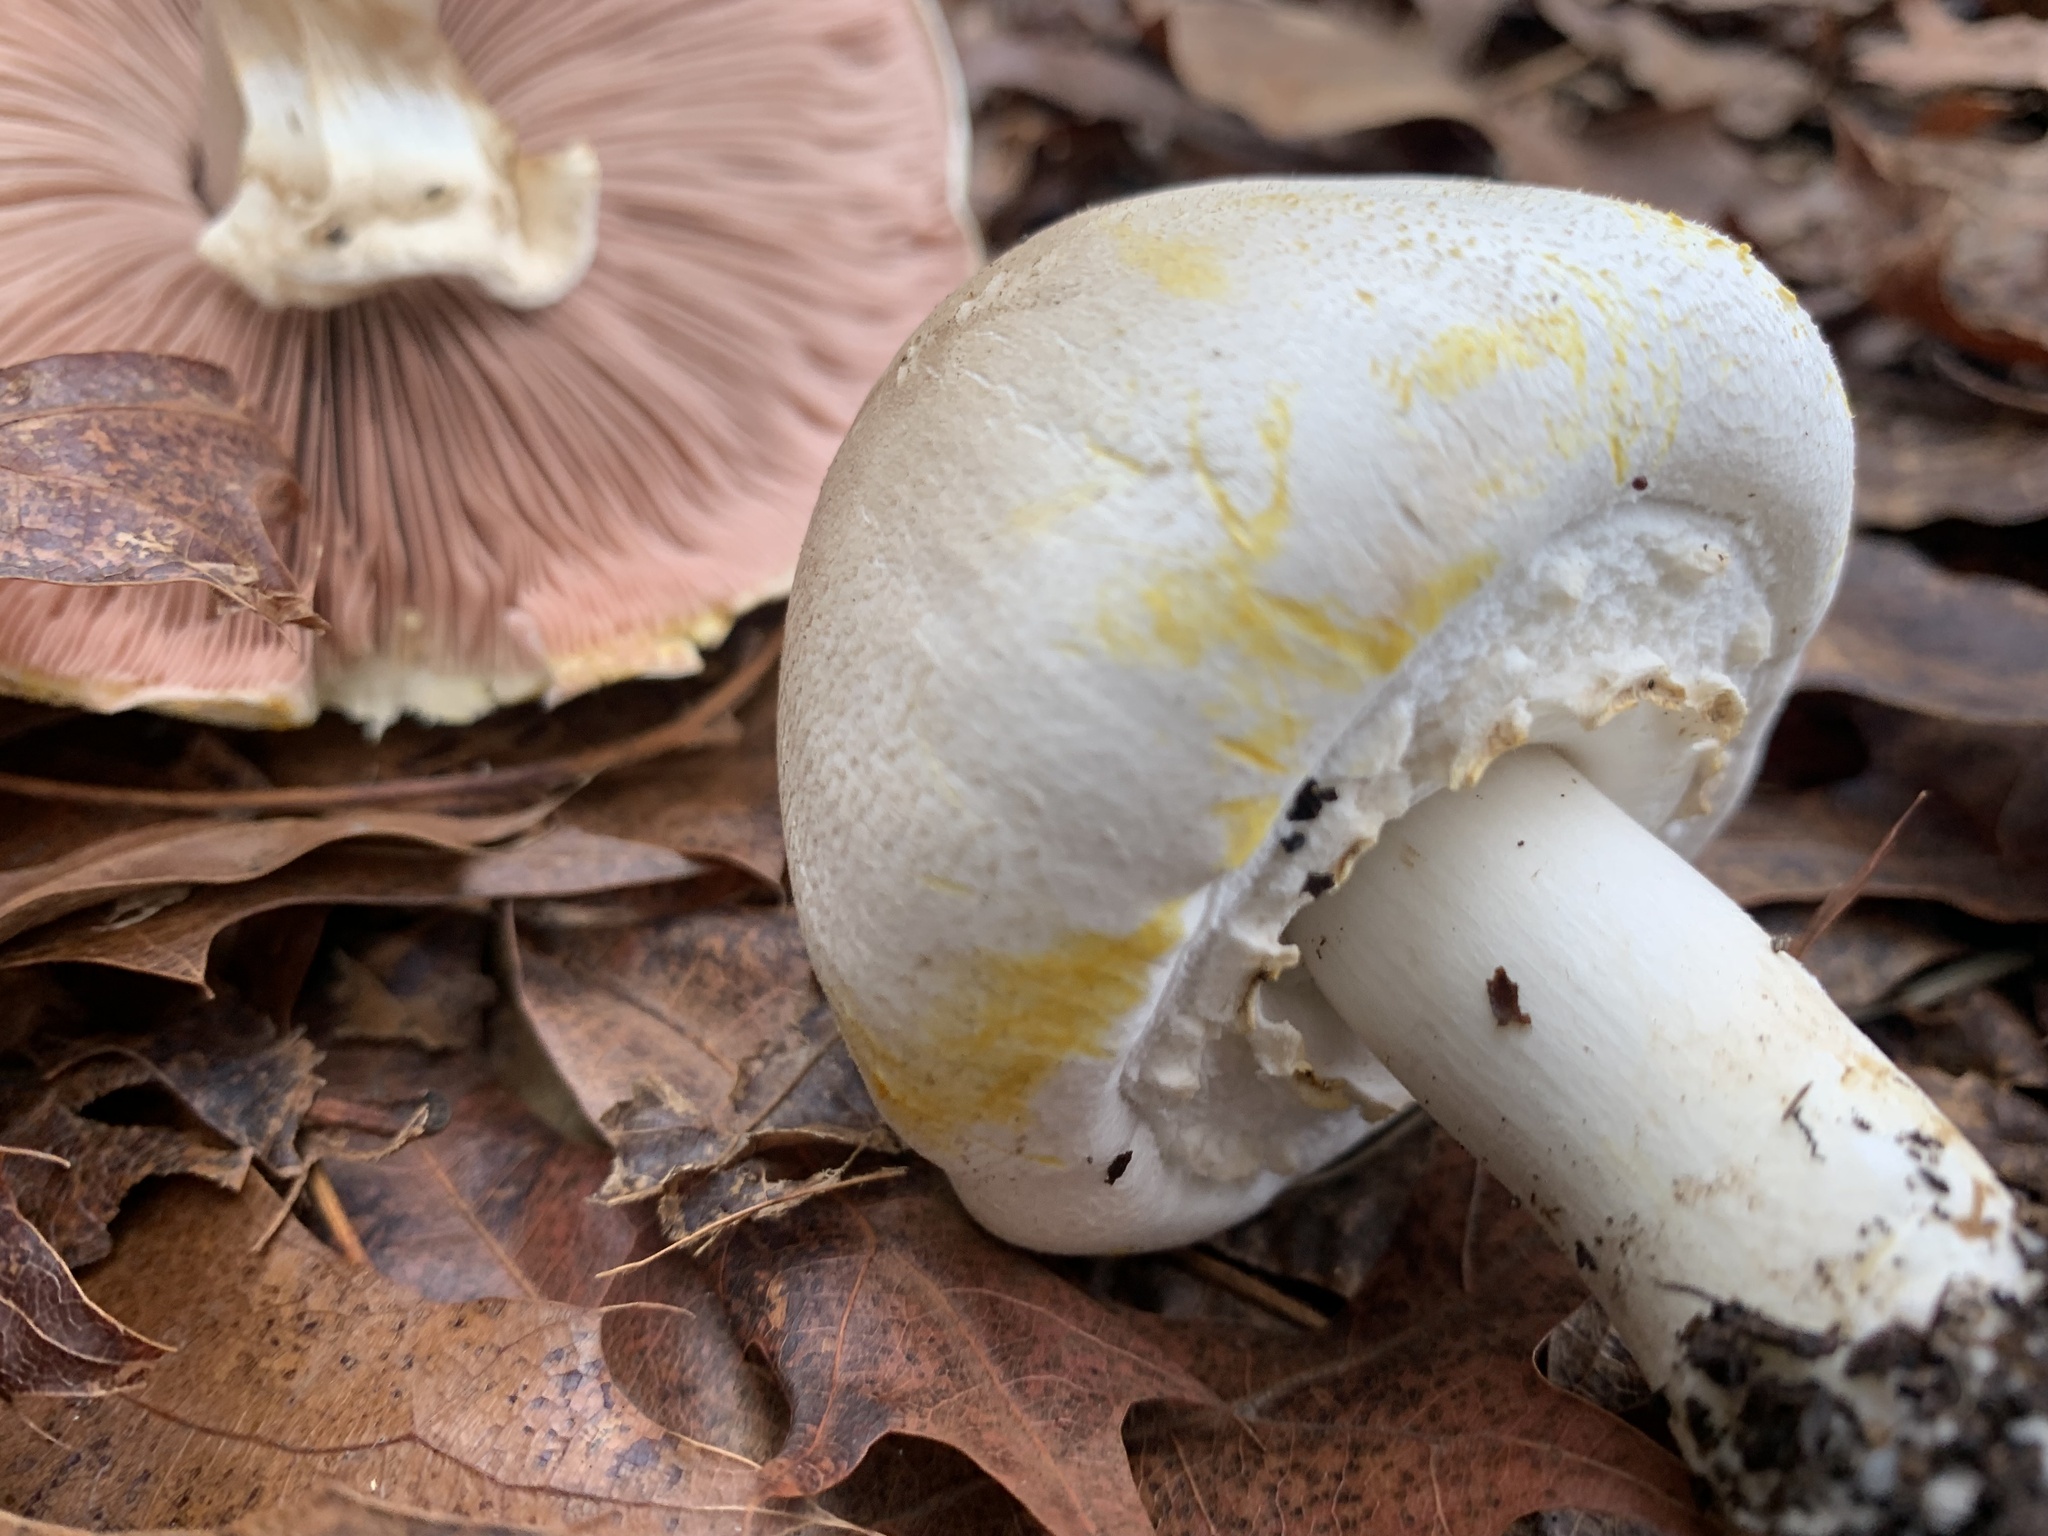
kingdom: Fungi
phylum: Basidiomycota
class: Agaricomycetes
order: Agaricales
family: Agaricaceae
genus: Agaricus
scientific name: Agaricus xanthodermus
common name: Yellow stainer
